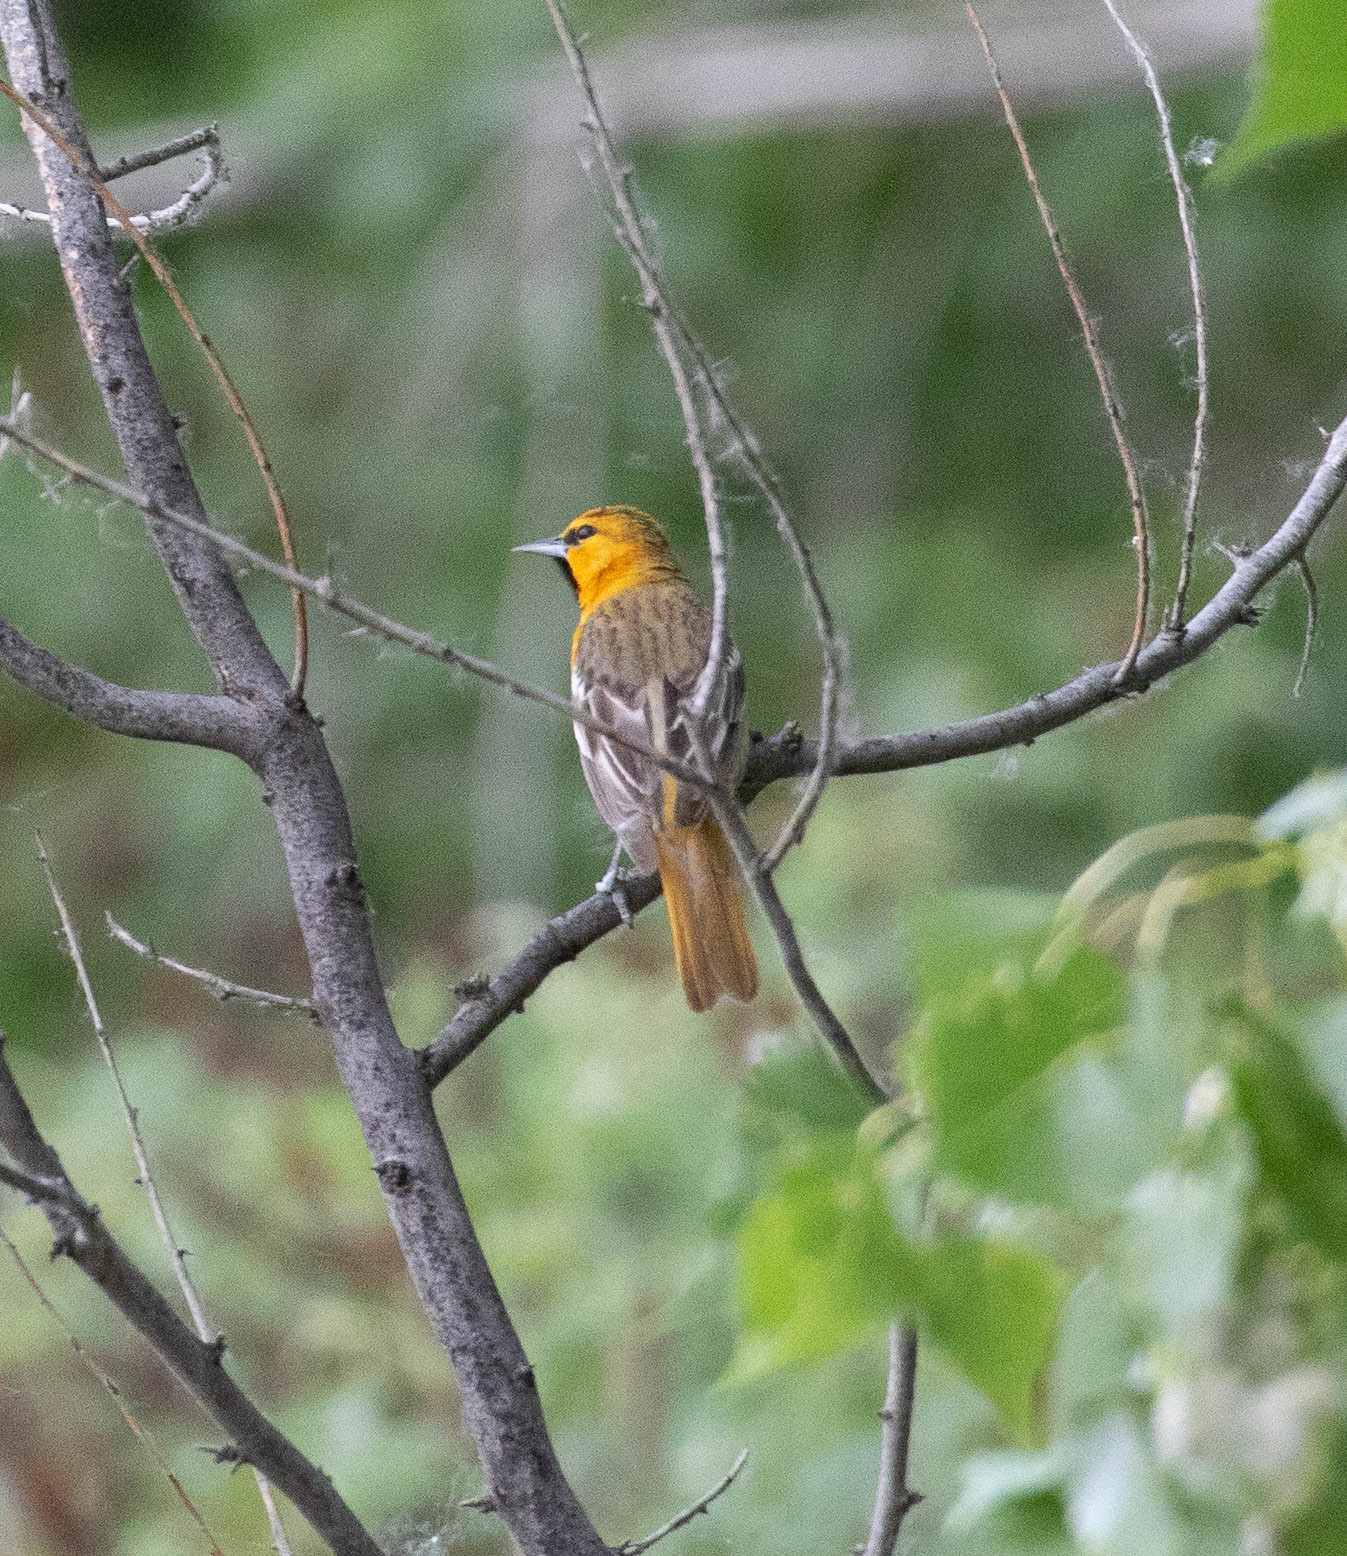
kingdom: Animalia
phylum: Chordata
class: Aves
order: Passeriformes
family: Icteridae
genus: Icterus
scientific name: Icterus bullockii
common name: Bullock's oriole
